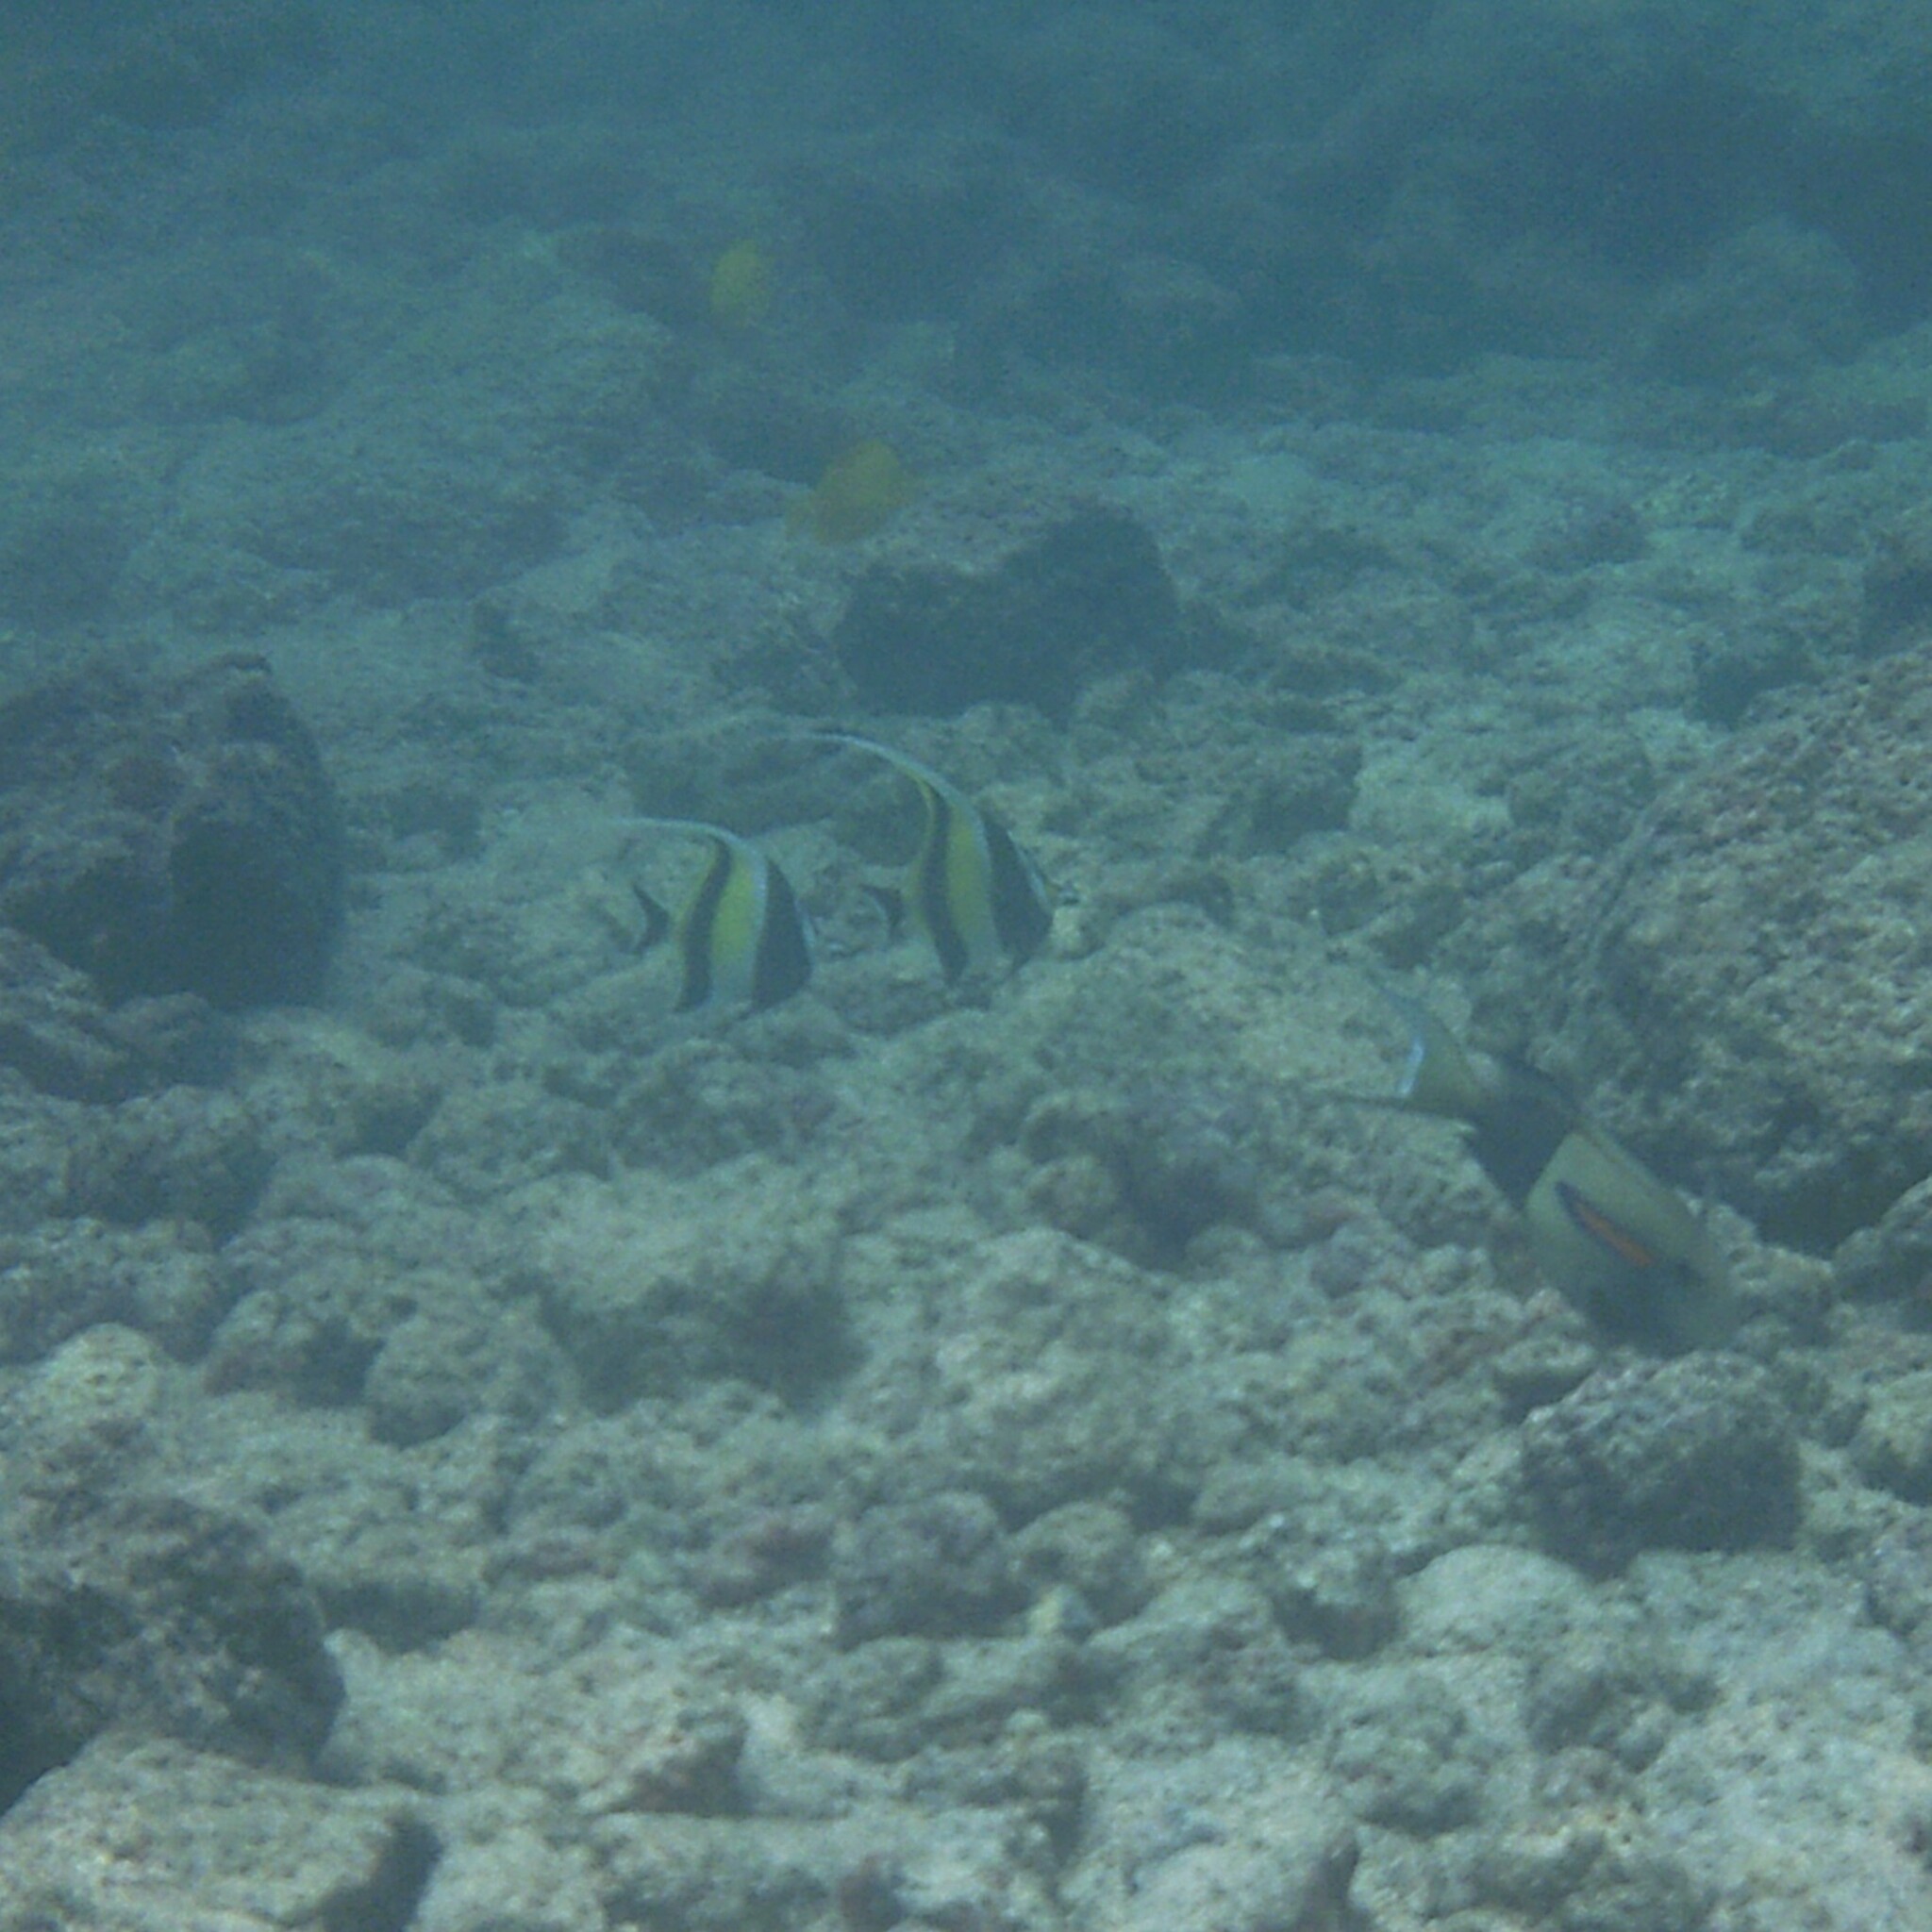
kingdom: Animalia
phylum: Chordata
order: Perciformes
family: Zanclidae
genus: Zanclus
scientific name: Zanclus cornutus
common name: Moorish idol
